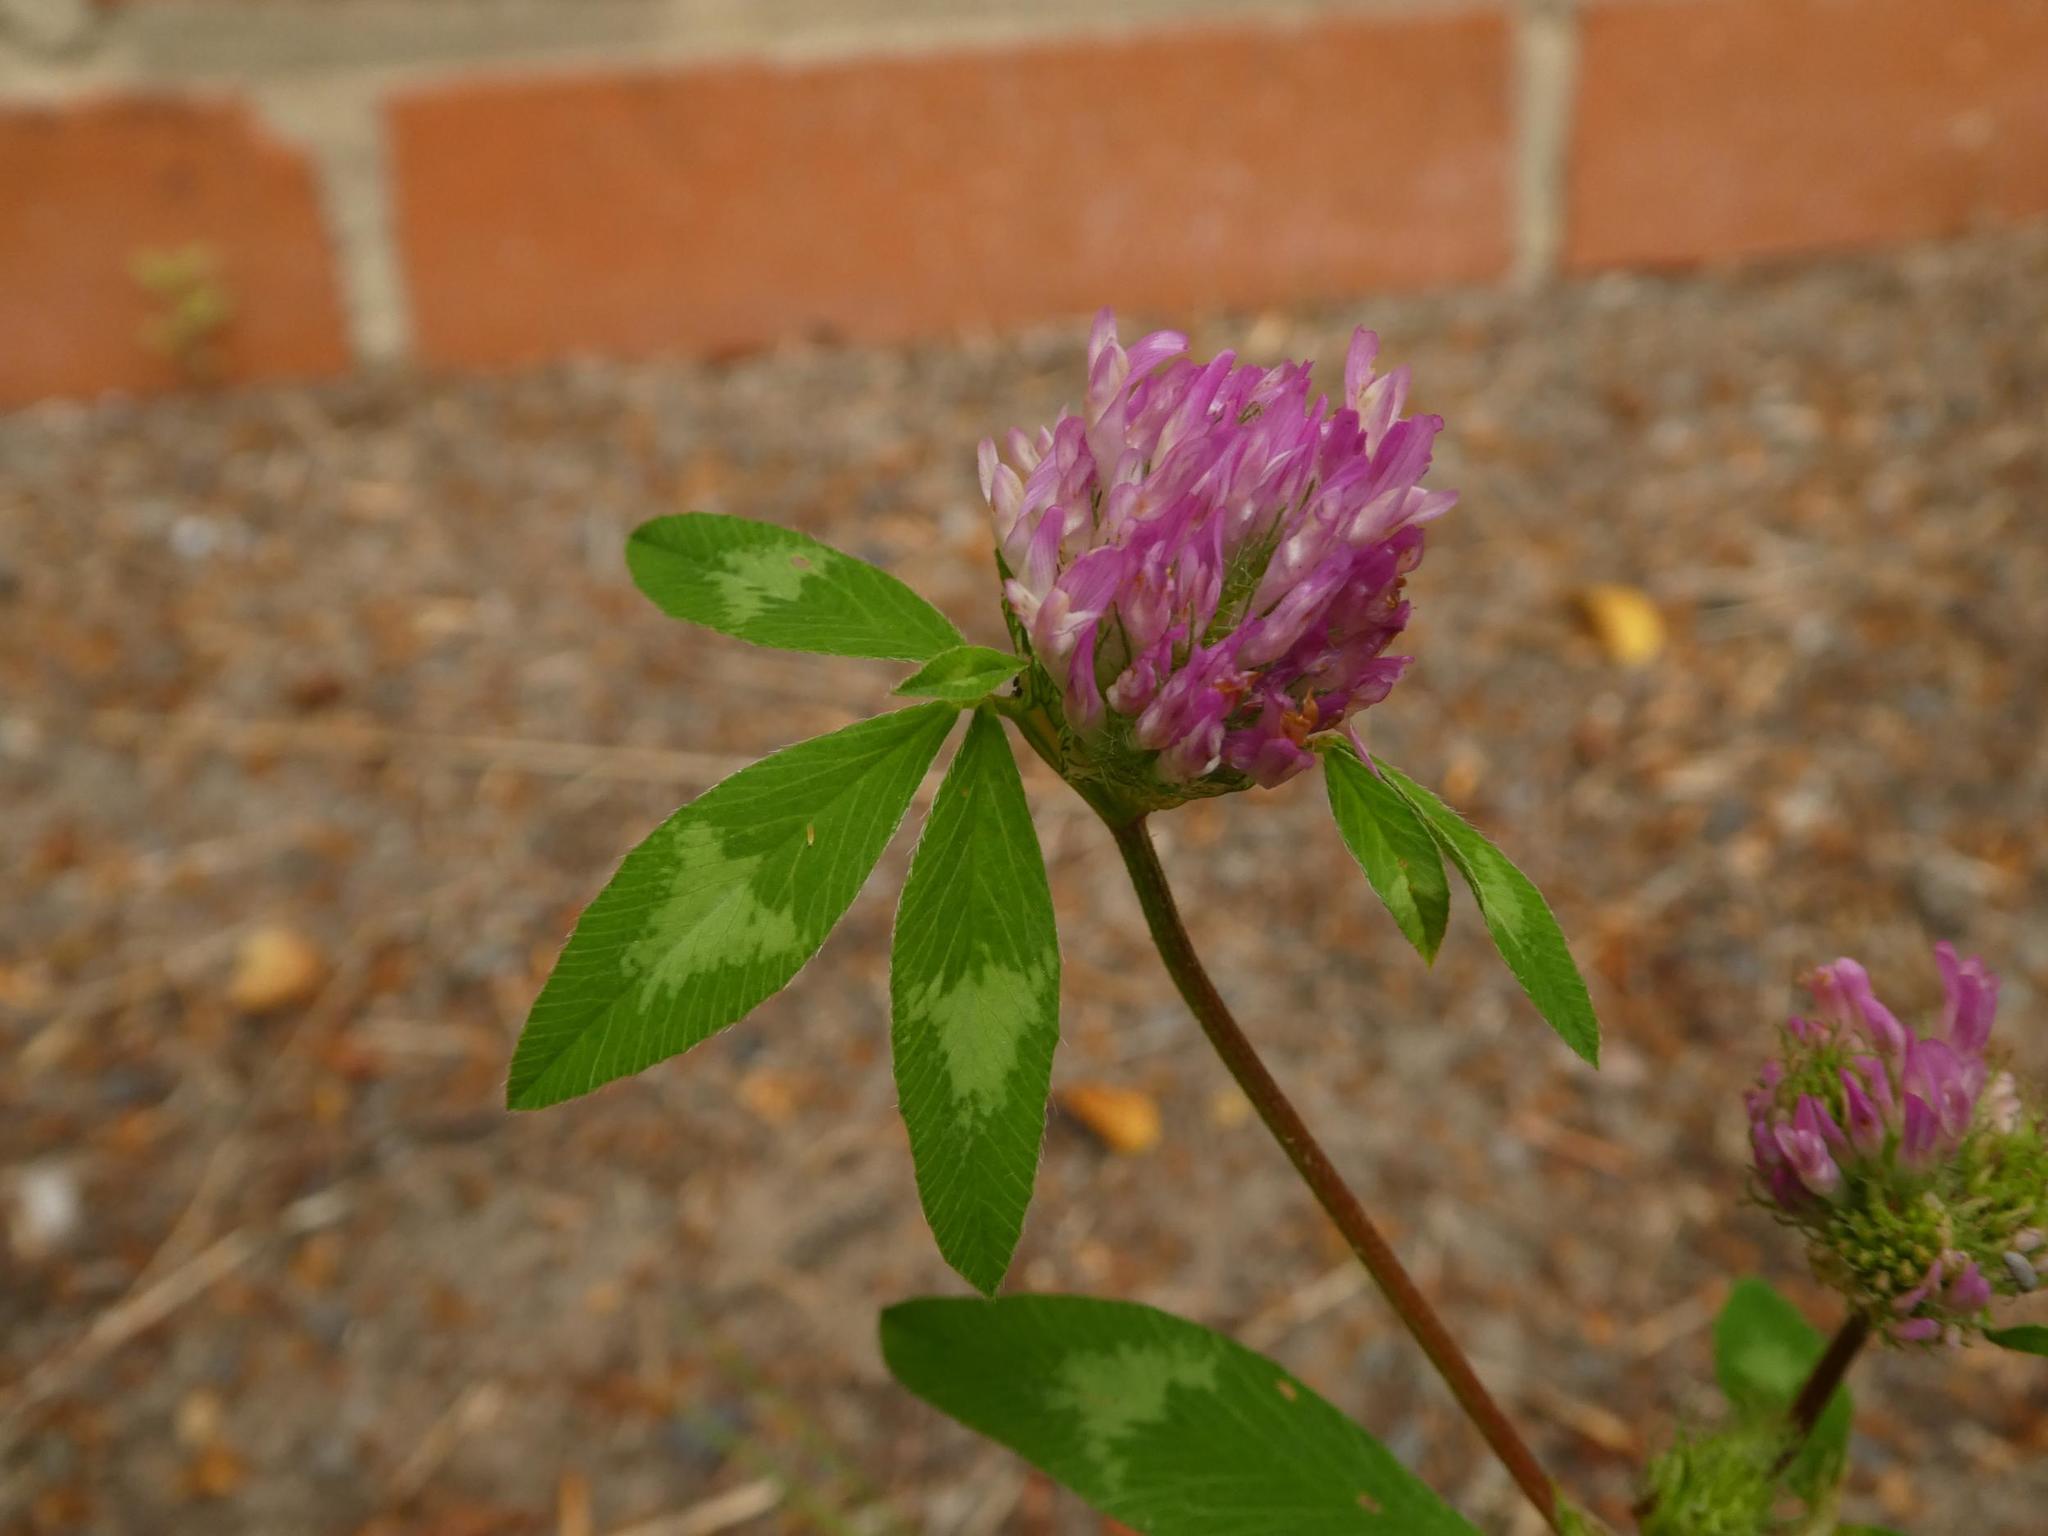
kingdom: Plantae
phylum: Tracheophyta
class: Magnoliopsida
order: Fabales
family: Fabaceae
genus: Trifolium
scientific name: Trifolium pratense
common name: Red clover
